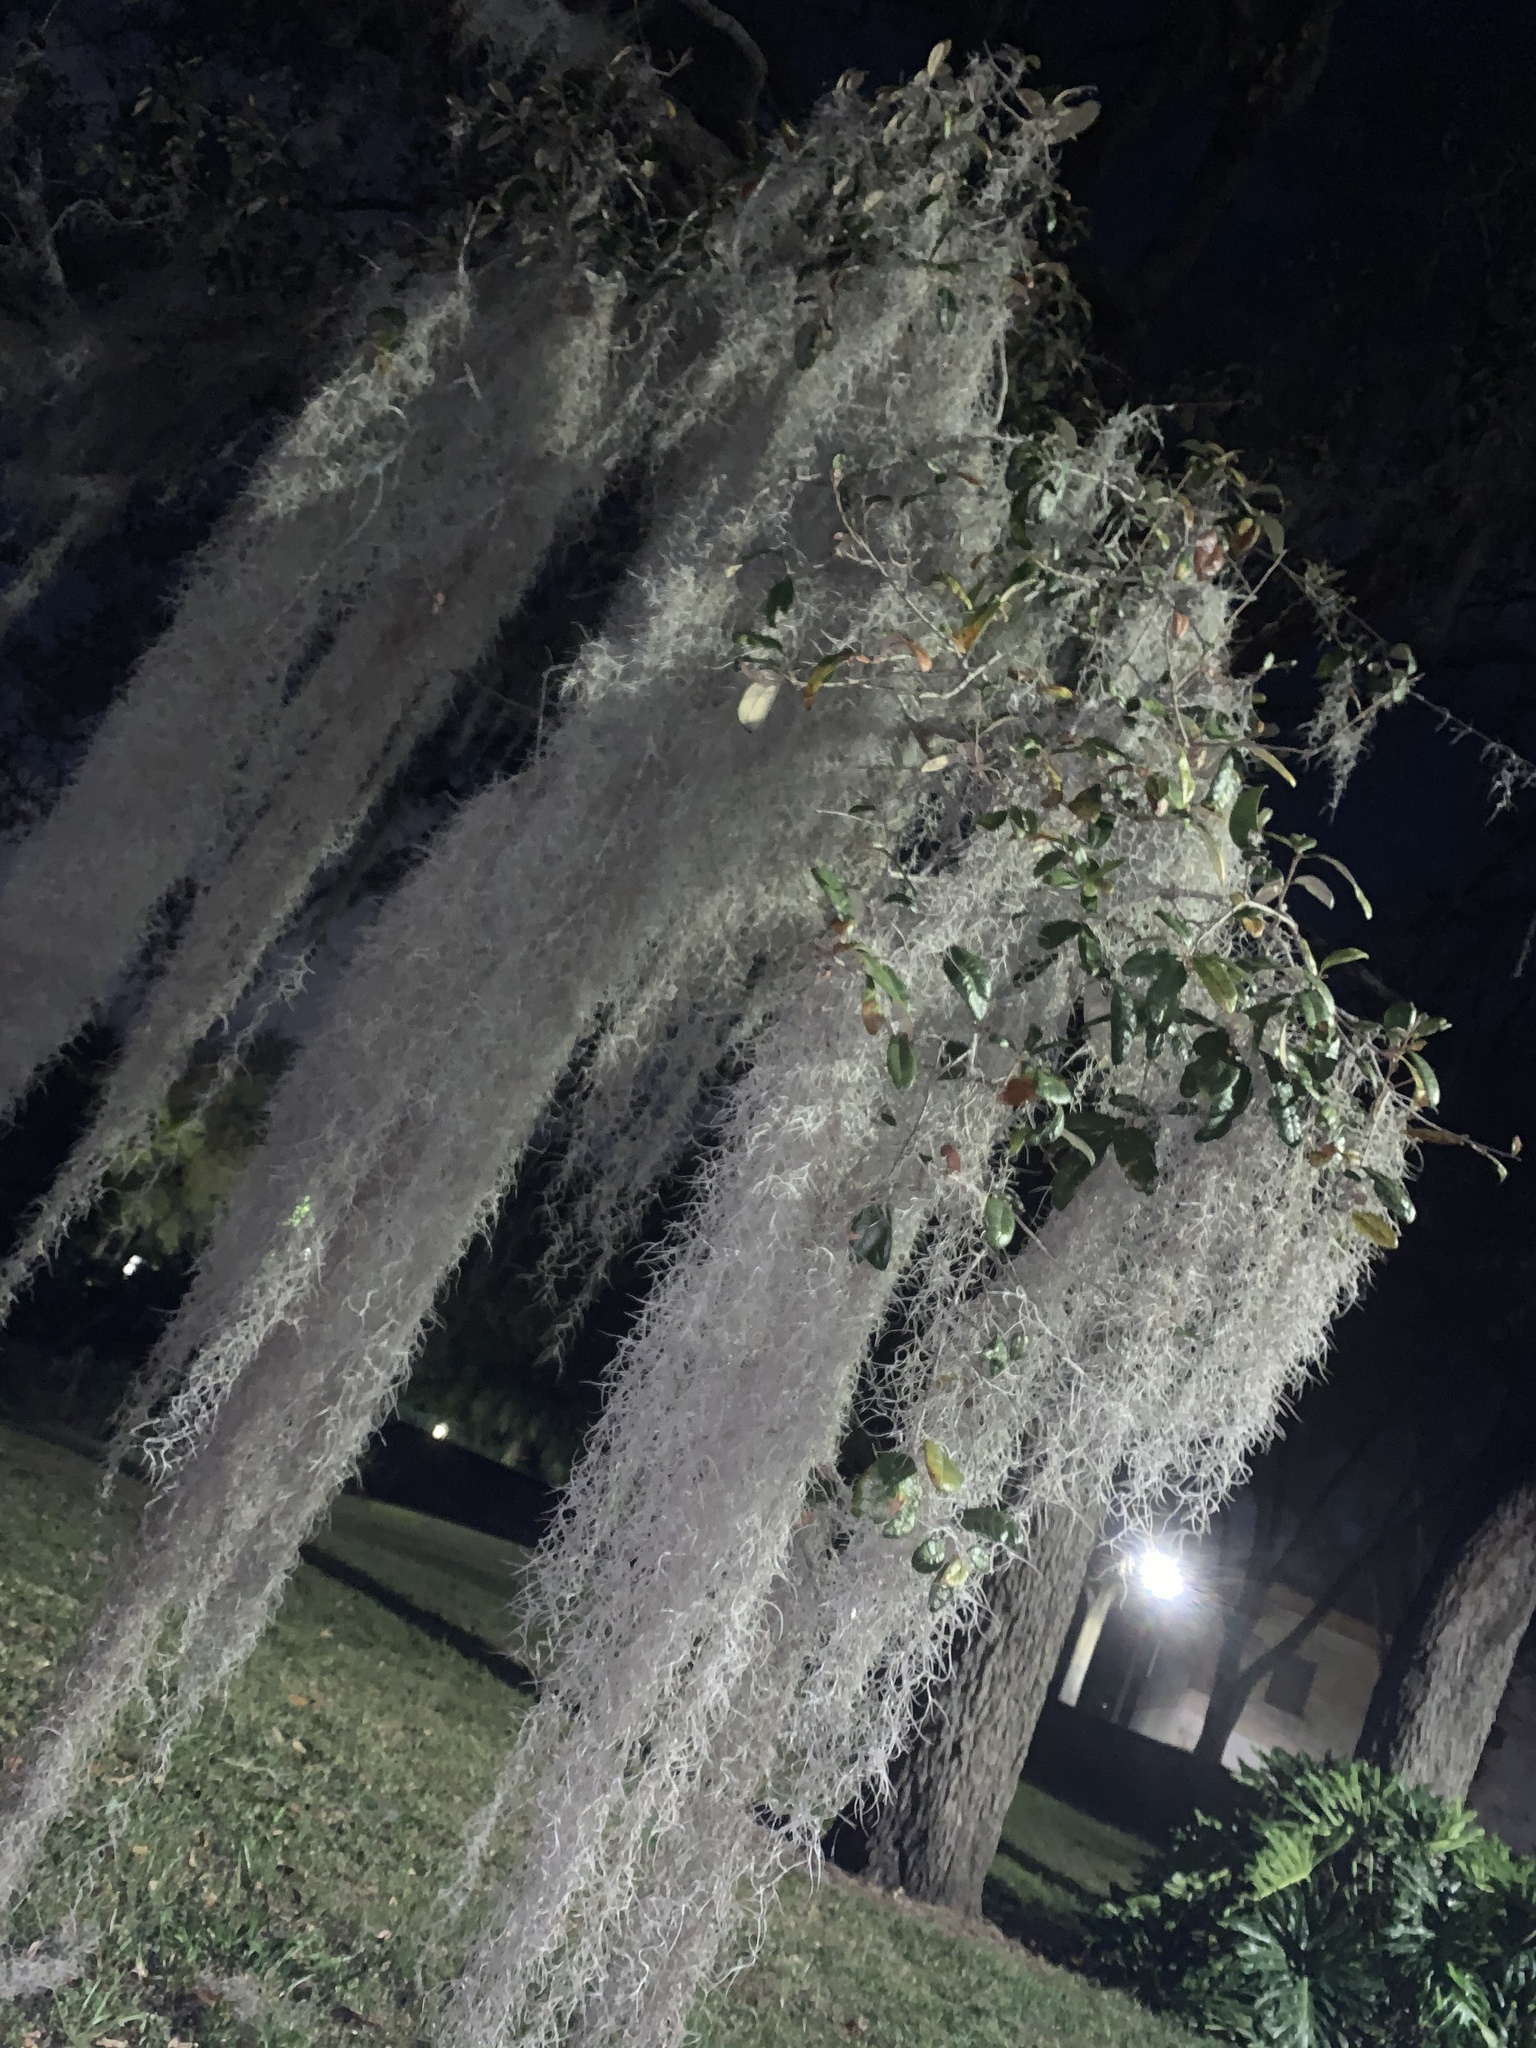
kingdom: Plantae
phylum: Tracheophyta
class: Liliopsida
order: Poales
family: Bromeliaceae
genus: Tillandsia
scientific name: Tillandsia usneoides
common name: Spanish moss
